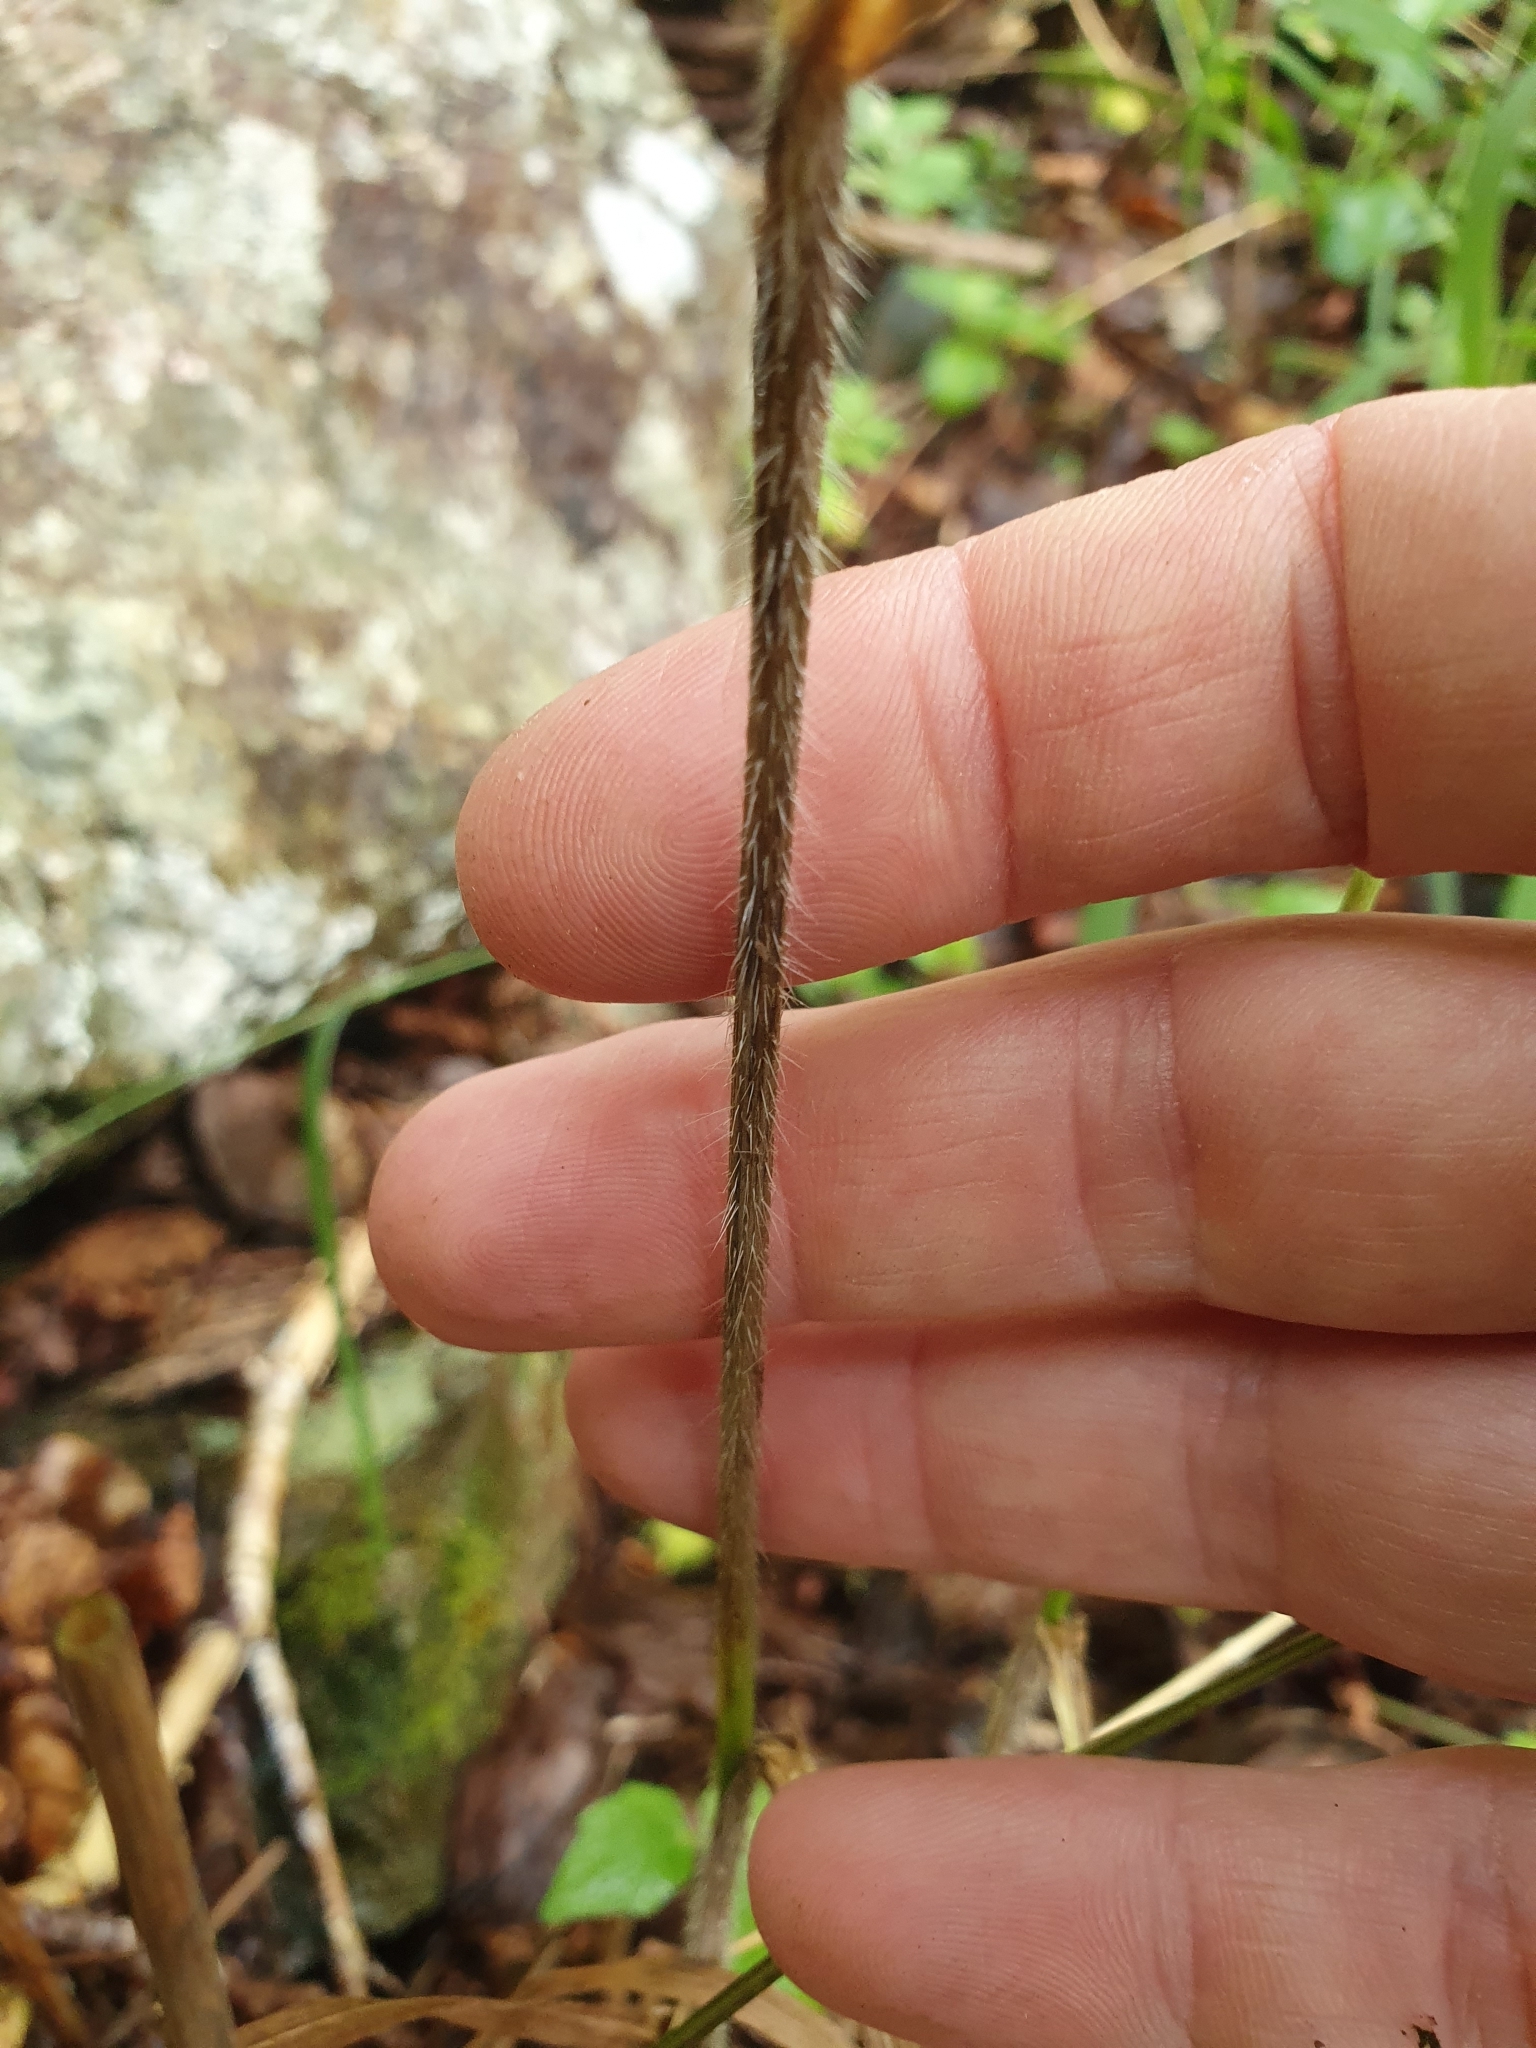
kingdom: Plantae
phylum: Tracheophyta
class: Liliopsida
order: Poales
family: Poaceae
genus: Bromus
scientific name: Bromus ramosus
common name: Hairy brome
